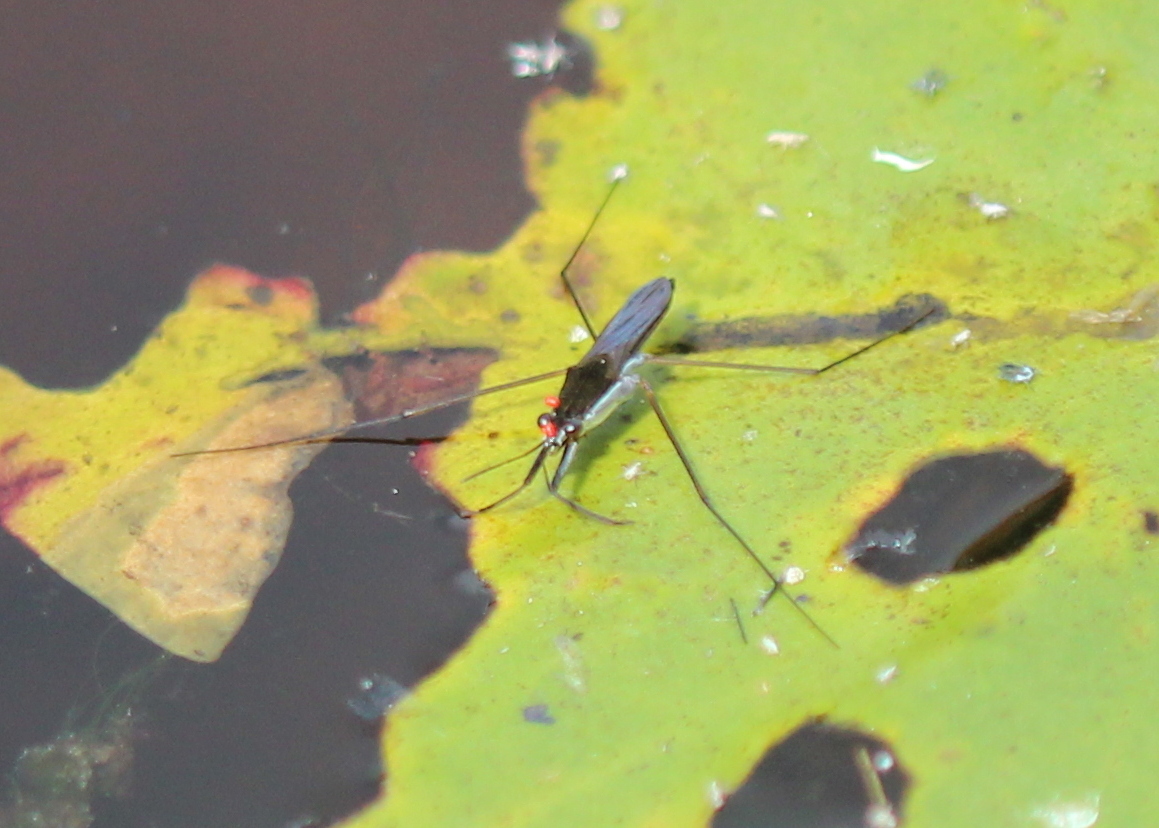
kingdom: Animalia
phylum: Arthropoda
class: Insecta
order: Hemiptera
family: Gerridae
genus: Gerris
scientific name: Gerris
